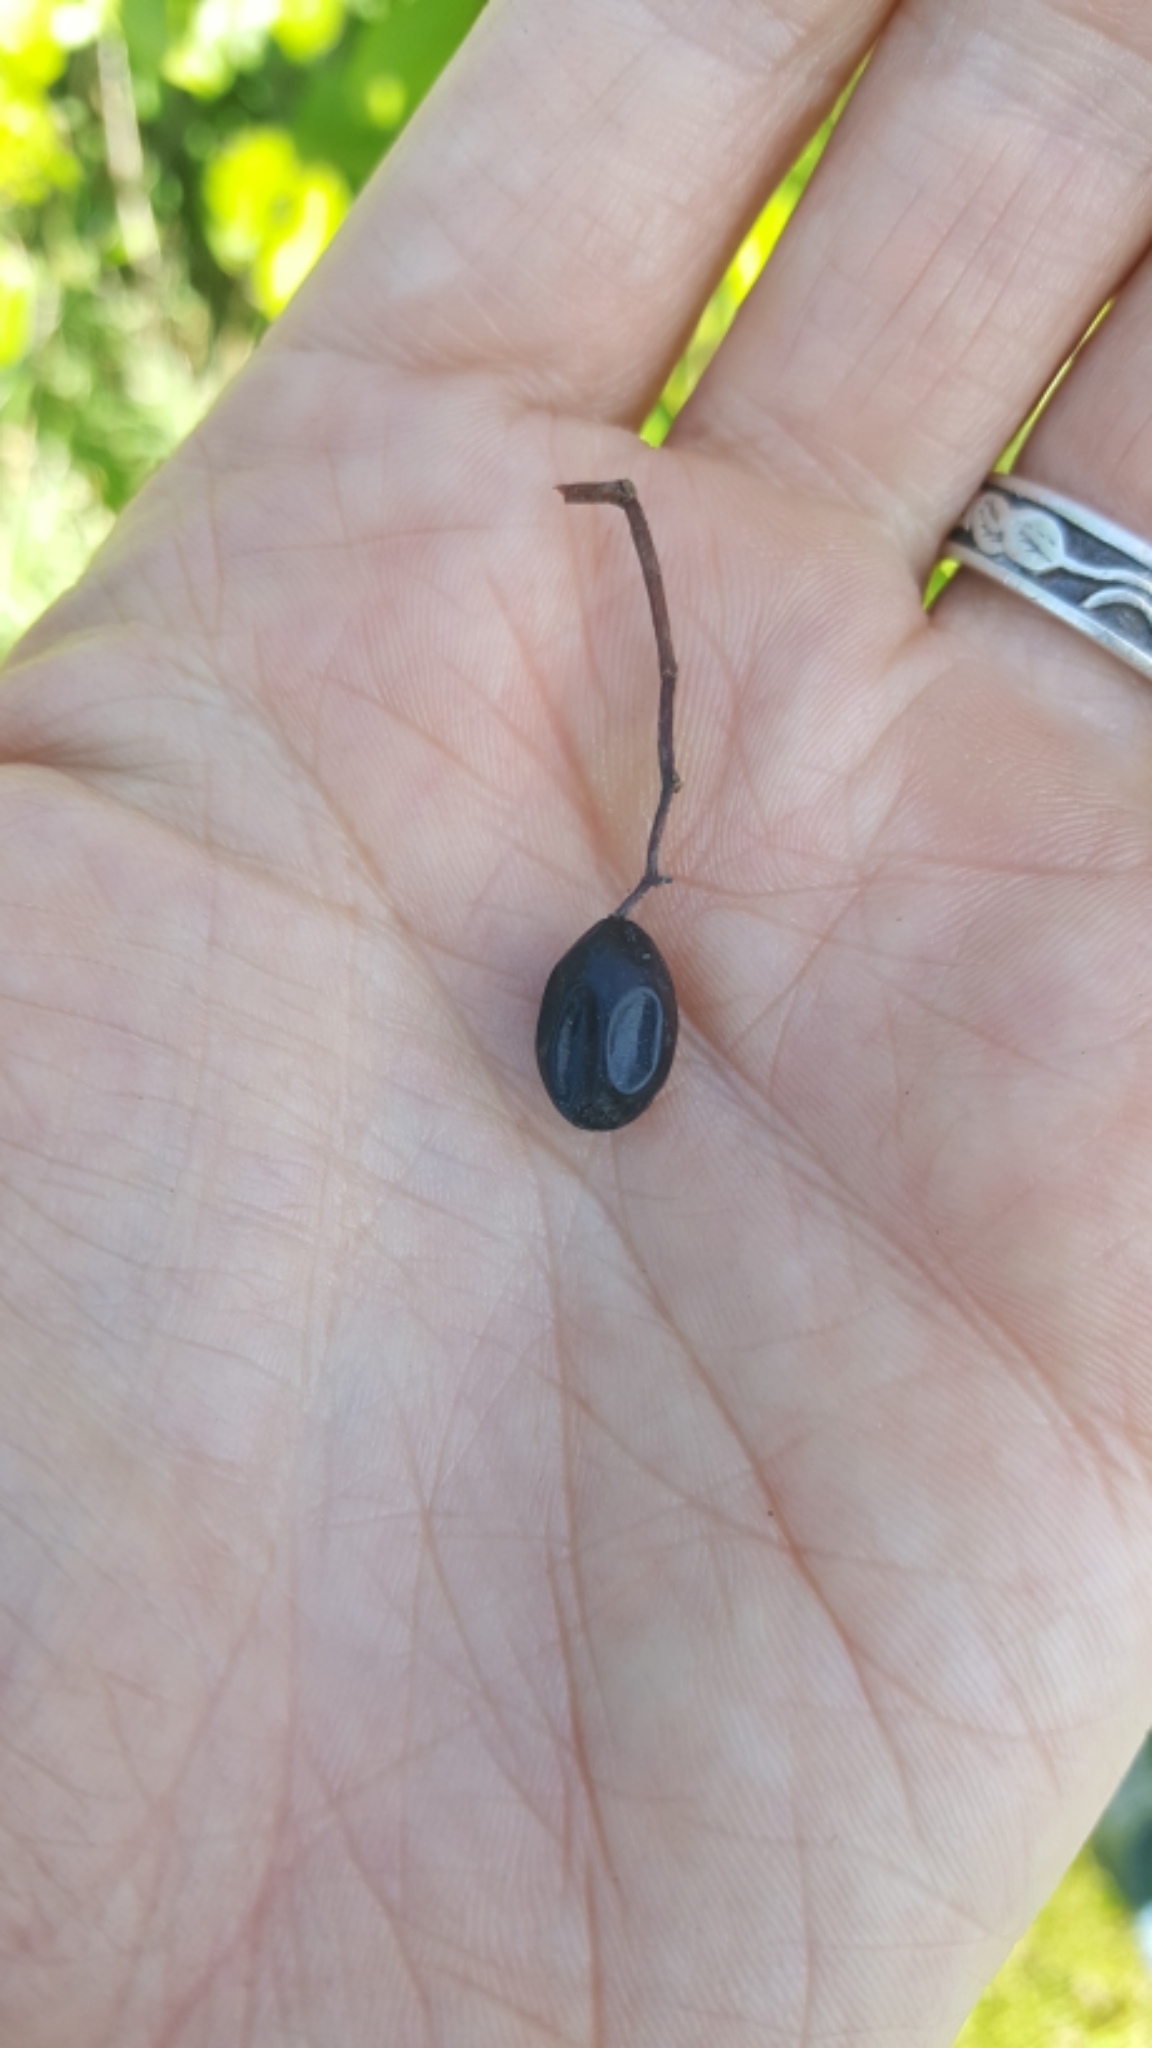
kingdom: Plantae
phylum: Tracheophyta
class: Magnoliopsida
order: Dipsacales
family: Viburnaceae
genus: Viburnum
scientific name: Viburnum lentago
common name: Black haw
